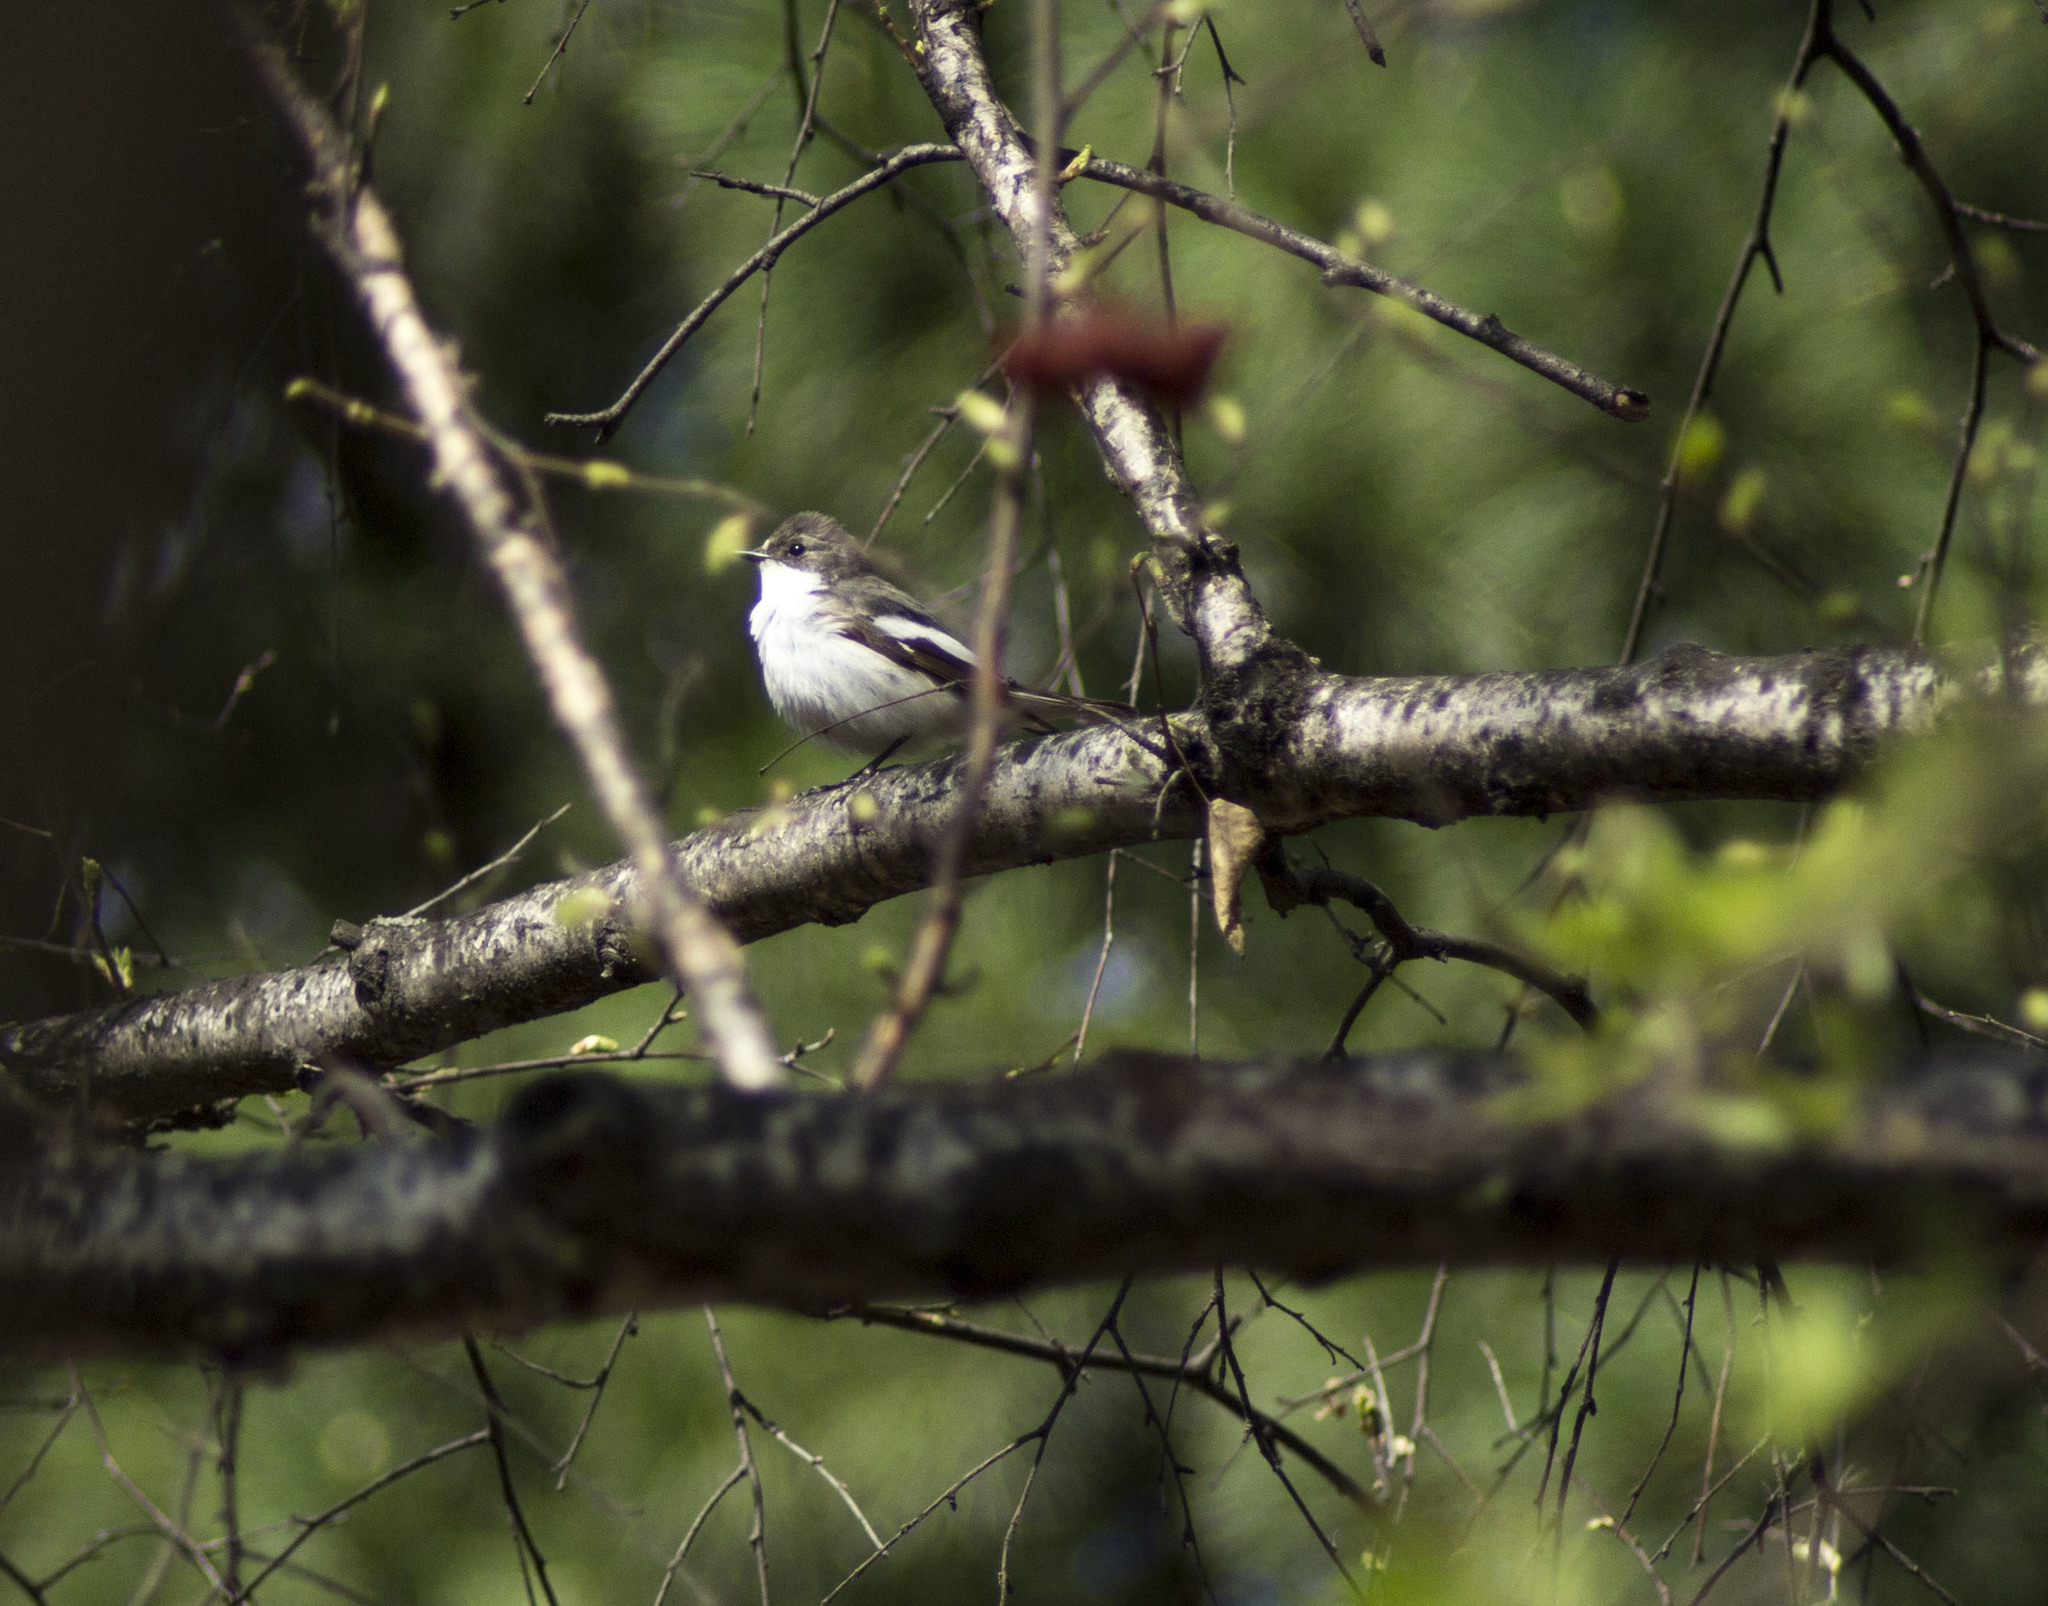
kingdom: Animalia
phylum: Chordata
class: Aves
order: Passeriformes
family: Muscicapidae
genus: Ficedula
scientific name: Ficedula hypoleuca
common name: European pied flycatcher
